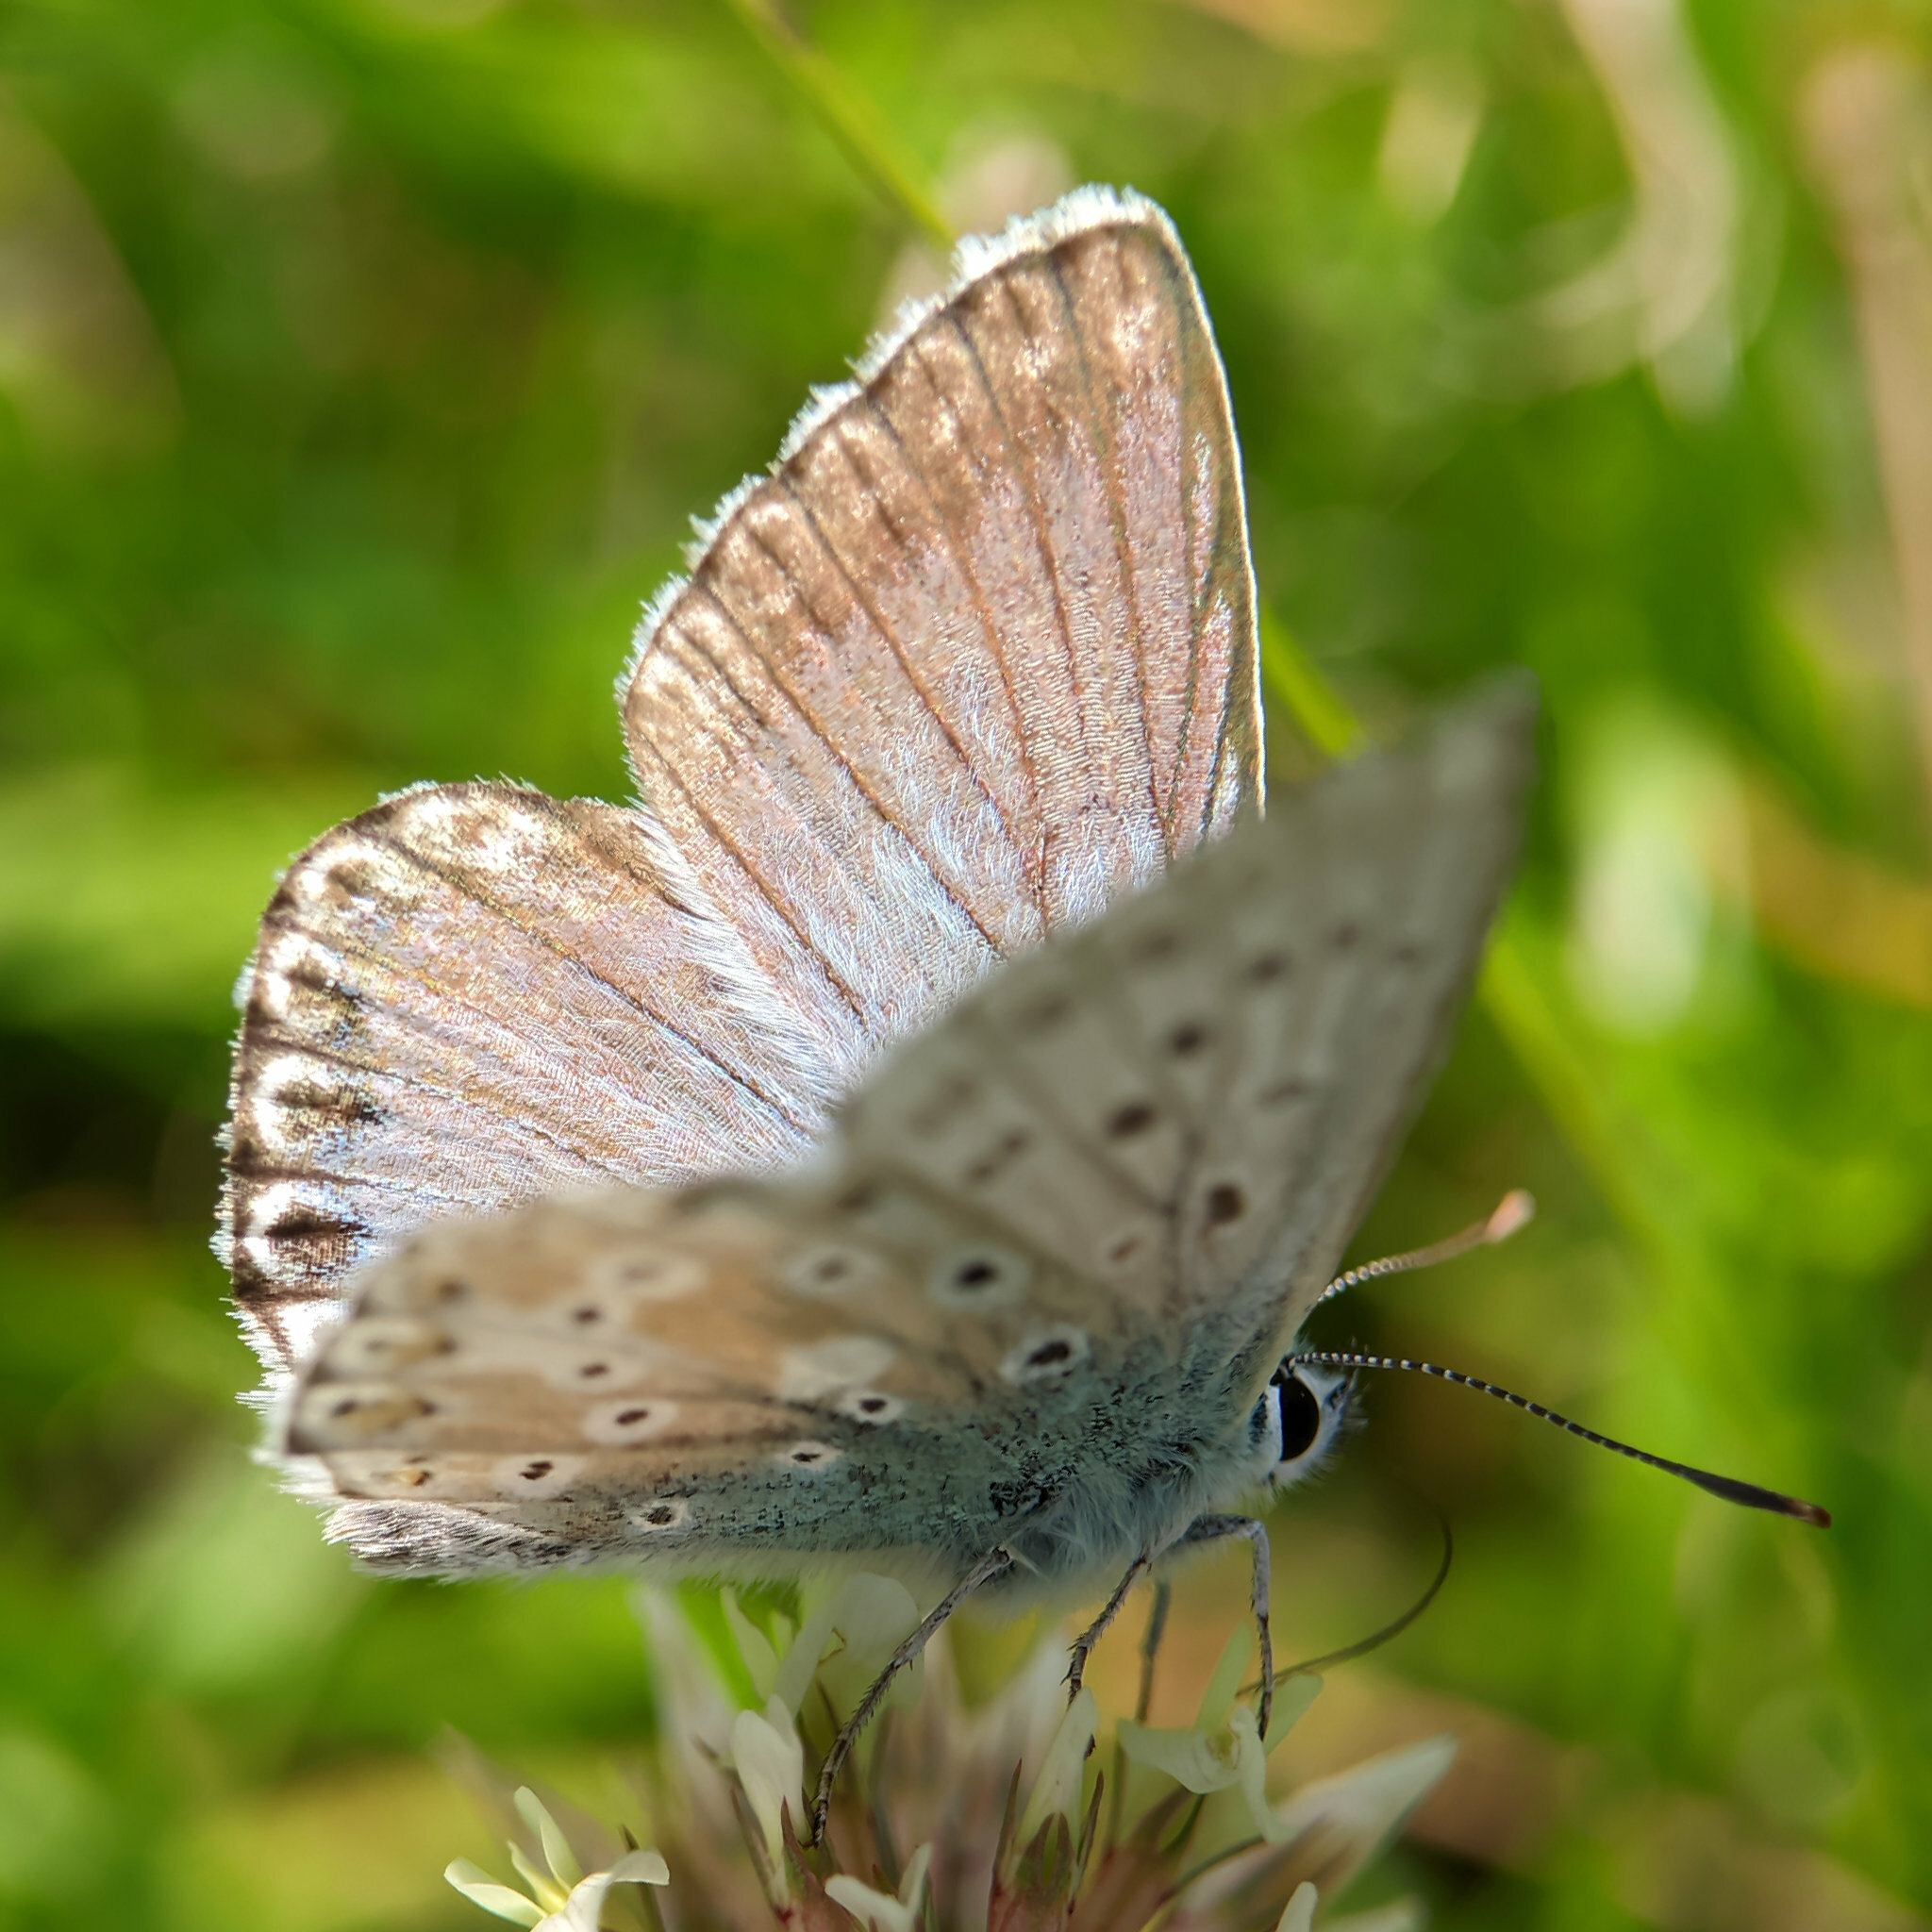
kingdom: Animalia
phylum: Arthropoda
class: Insecta
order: Lepidoptera
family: Lycaenidae
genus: Lysandra
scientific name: Lysandra coridon
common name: Chalkhill blue
